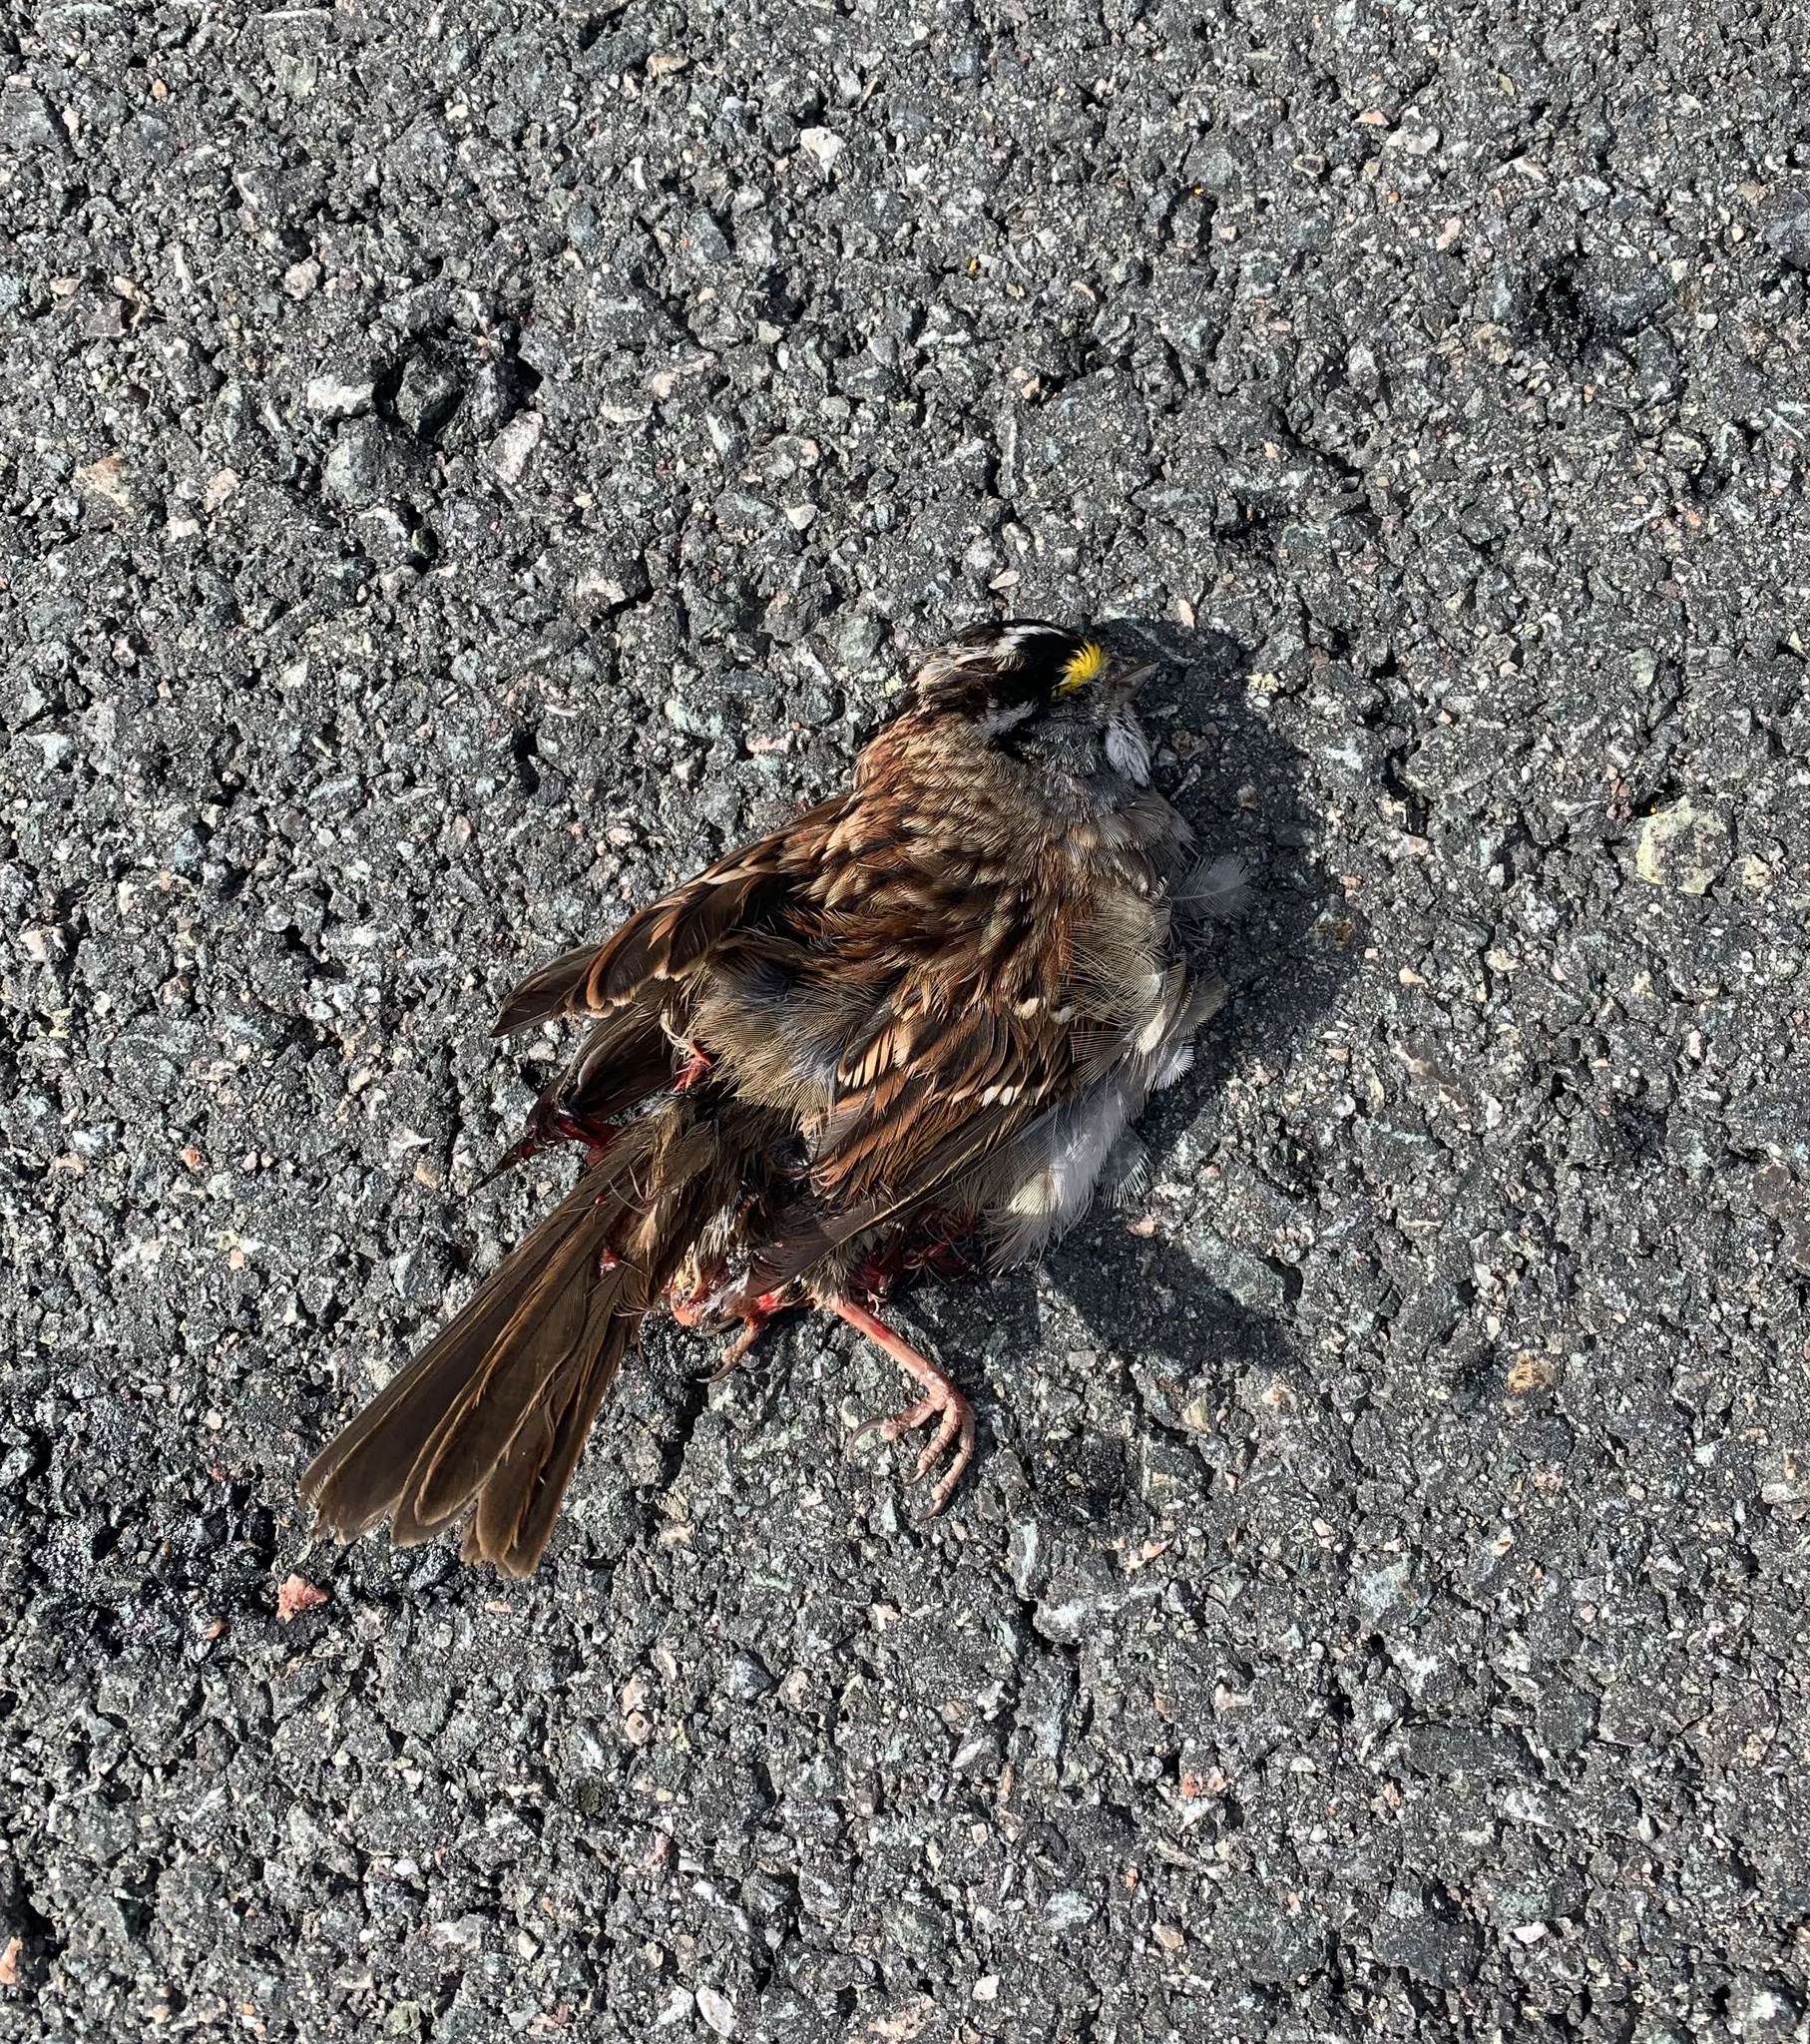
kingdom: Animalia
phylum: Chordata
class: Aves
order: Passeriformes
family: Passerellidae
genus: Zonotrichia
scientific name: Zonotrichia albicollis
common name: White-throated sparrow
